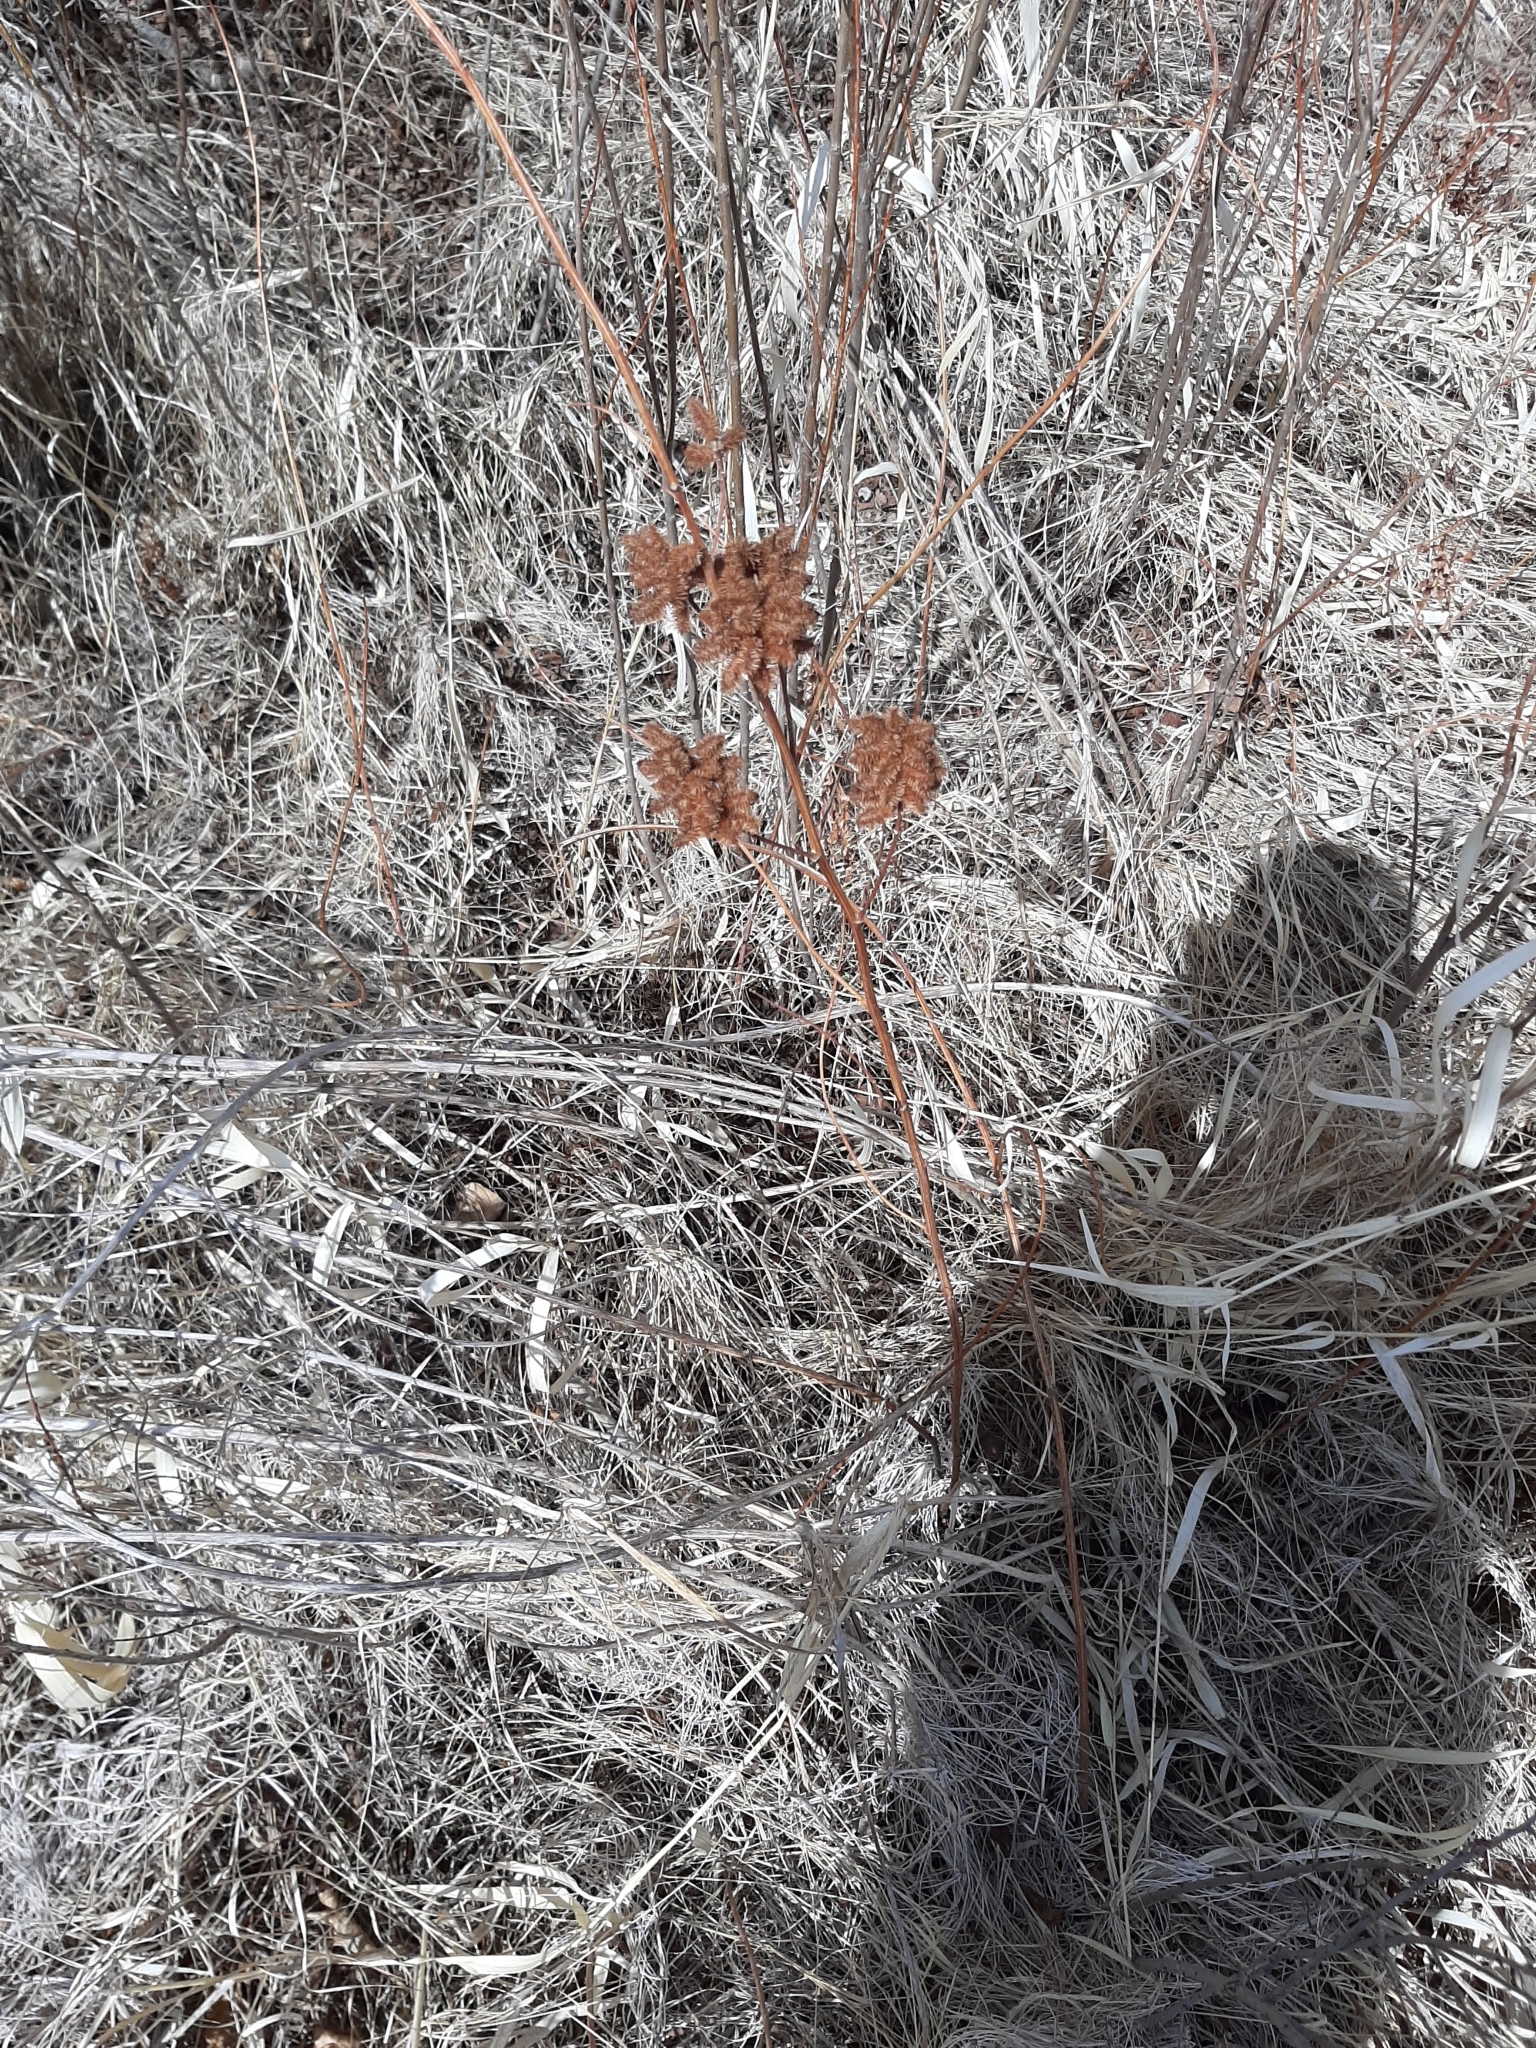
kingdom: Plantae
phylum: Tracheophyta
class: Magnoliopsida
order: Fabales
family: Fabaceae
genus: Glycyrrhiza
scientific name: Glycyrrhiza lepidota
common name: American liquorice
